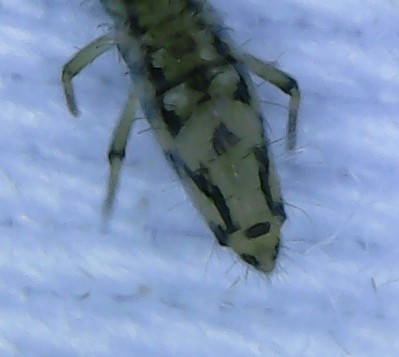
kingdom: Animalia
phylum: Arthropoda
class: Collembola
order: Entomobryomorpha
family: Entomobryidae
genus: Entomobrya
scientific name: Entomobrya katzi
